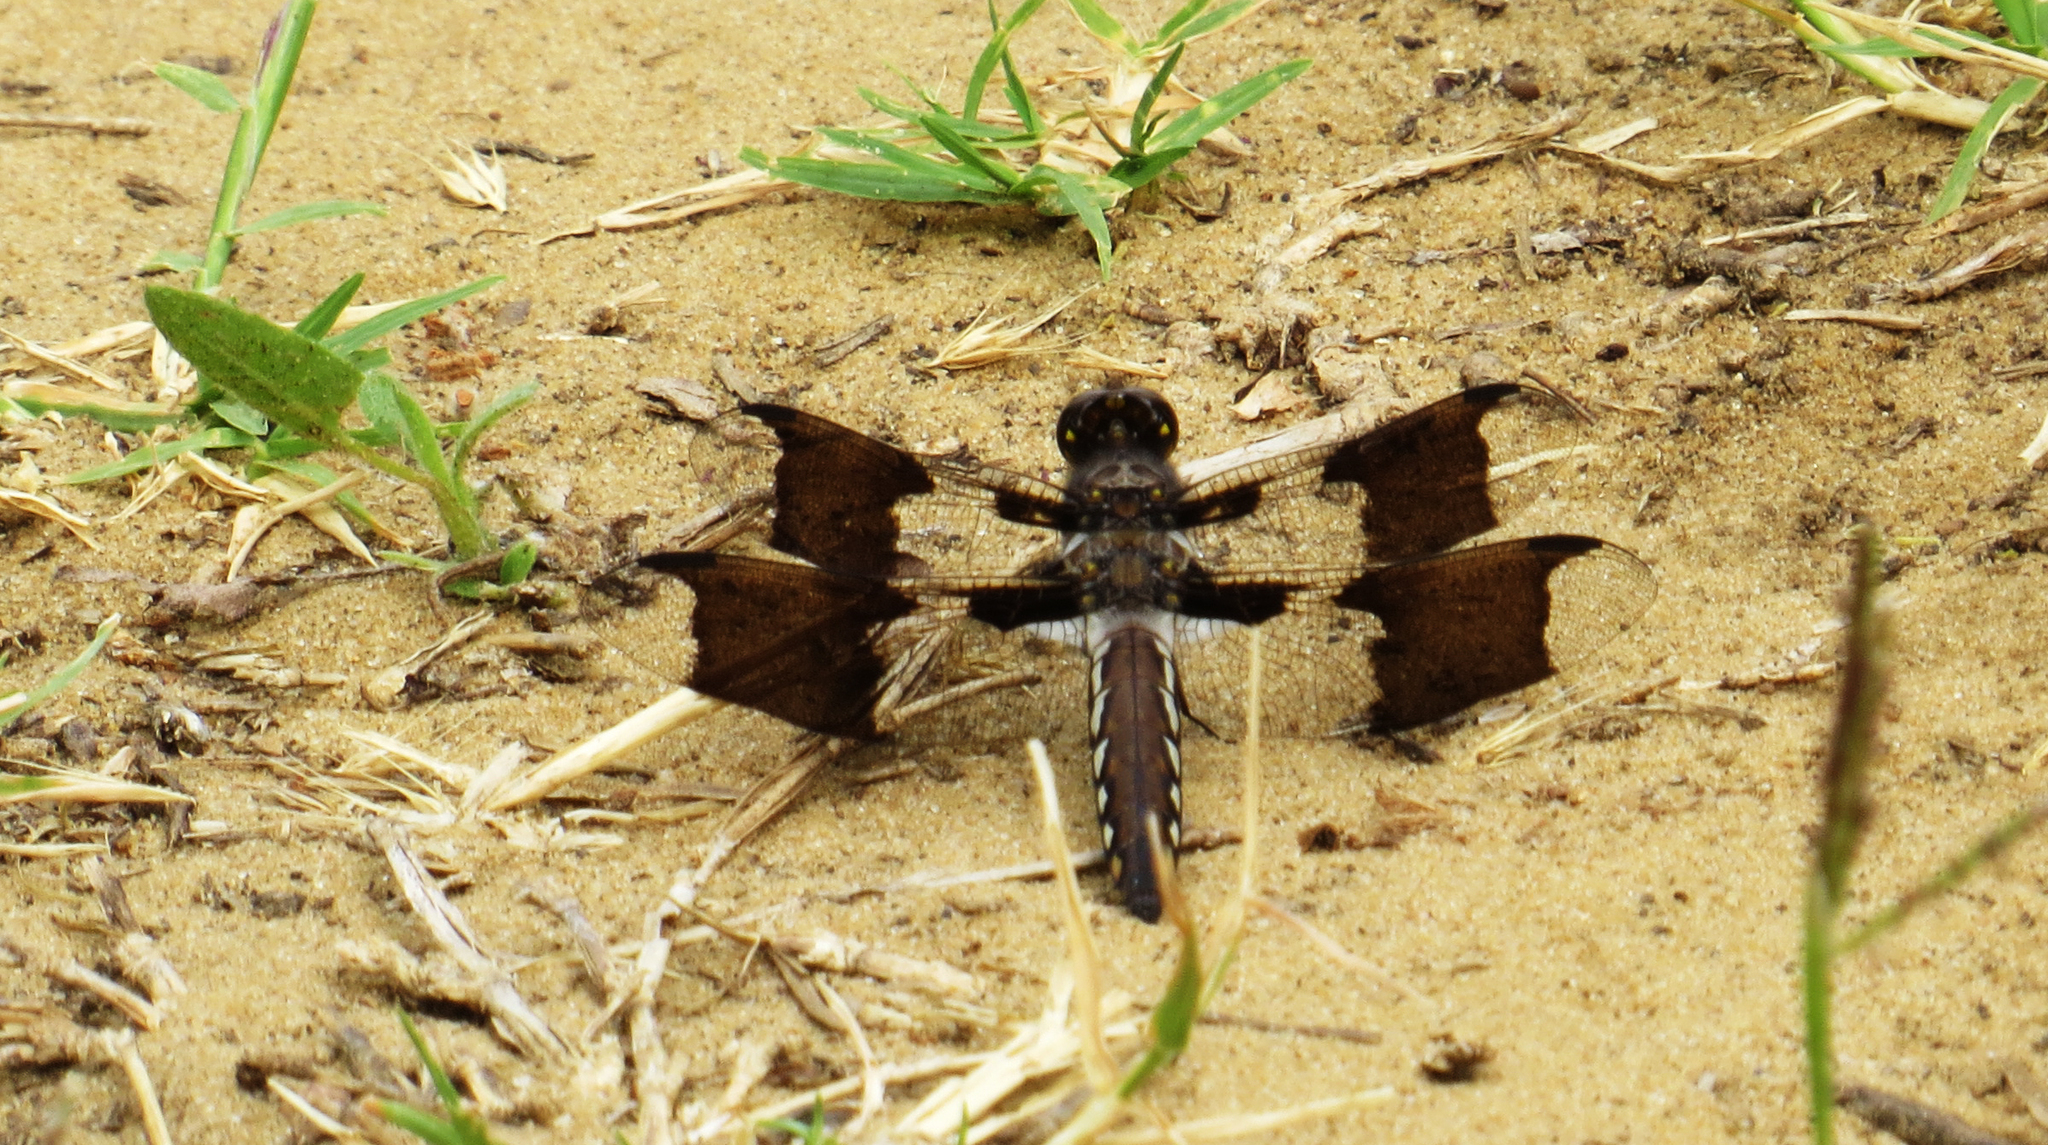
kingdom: Animalia
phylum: Arthropoda
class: Insecta
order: Odonata
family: Libellulidae
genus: Plathemis
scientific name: Plathemis lydia
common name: Common whitetail
